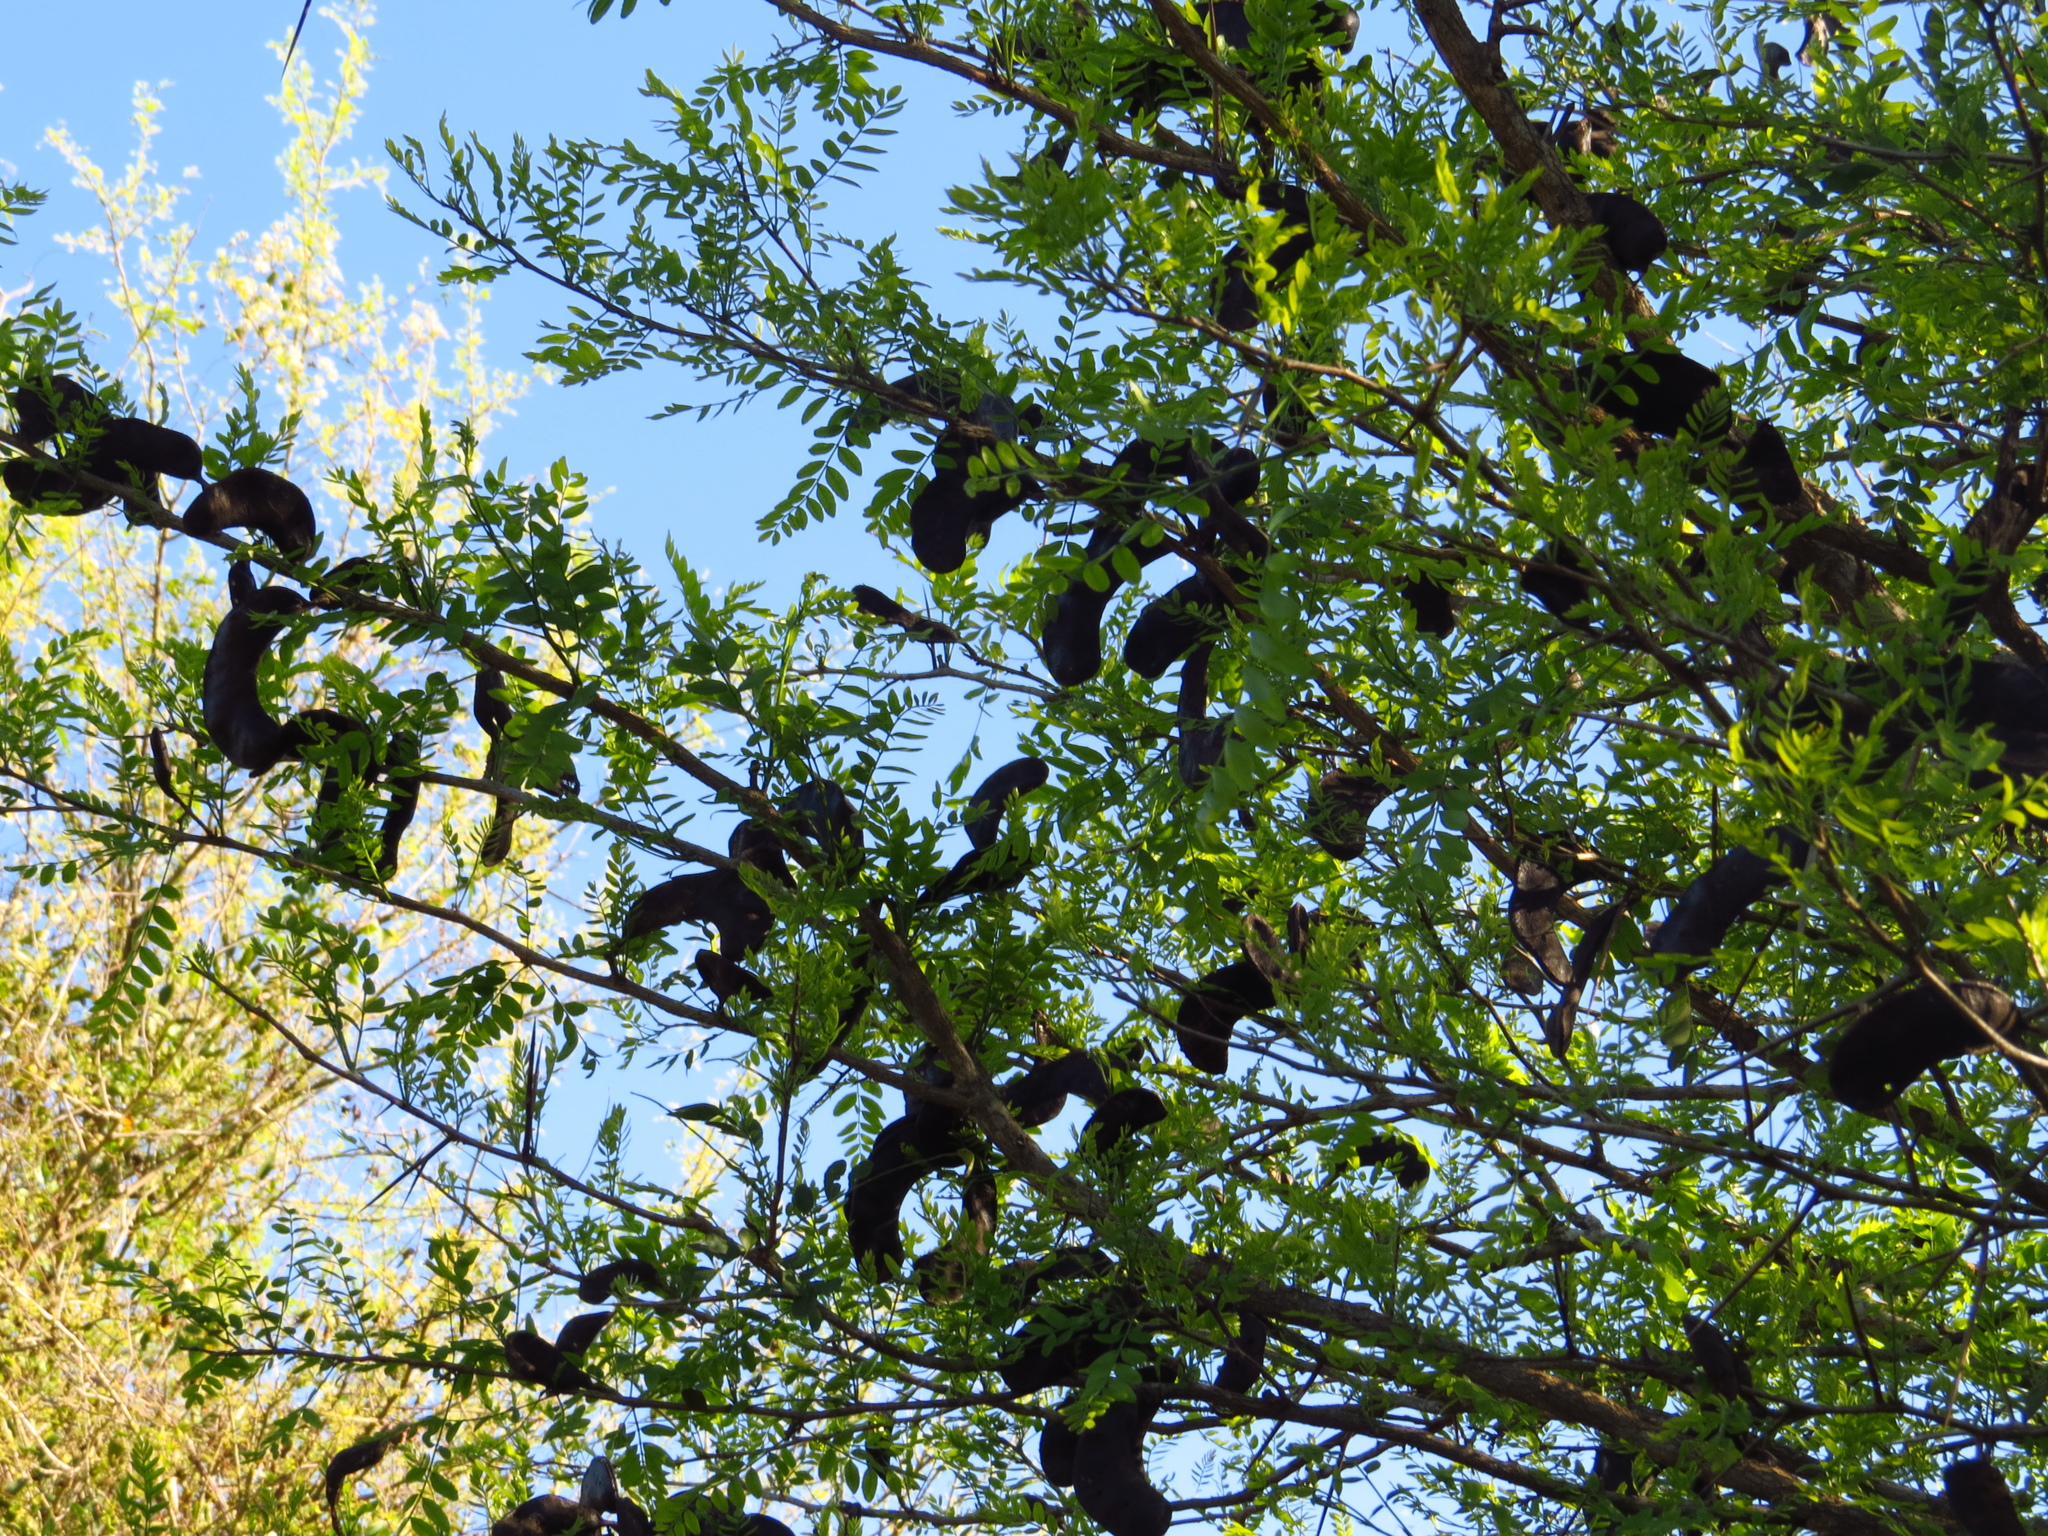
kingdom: Plantae
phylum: Tracheophyta
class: Magnoliopsida
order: Fabales
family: Fabaceae
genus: Gleditsia
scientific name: Gleditsia amorphoides
